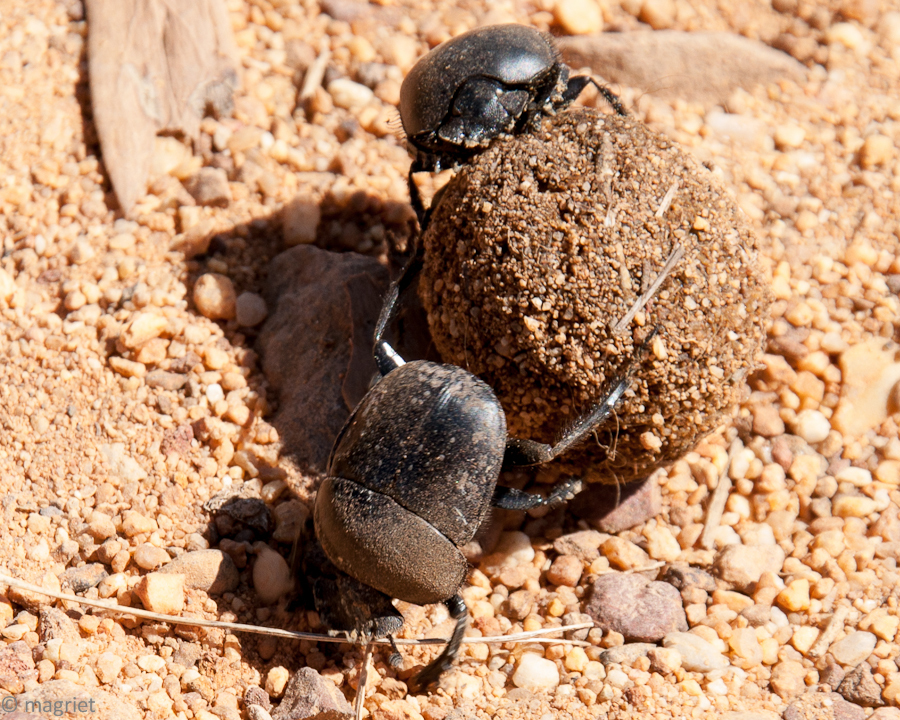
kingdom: Animalia
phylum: Arthropoda
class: Insecta
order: Coleoptera
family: Scarabaeidae
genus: Scarabaeus
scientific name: Scarabaeus convexus
